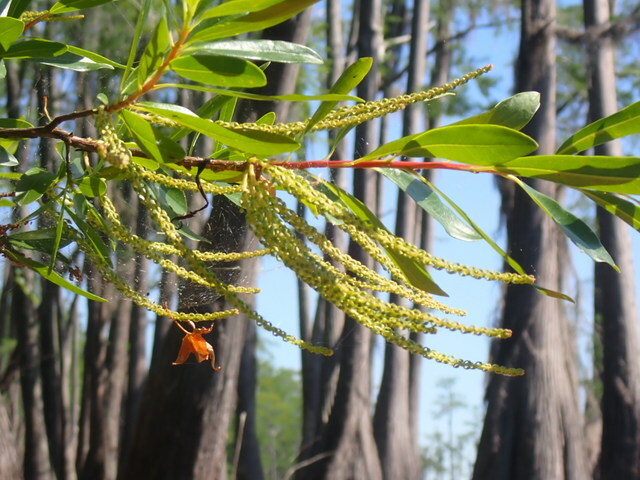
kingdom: Plantae
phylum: Tracheophyta
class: Magnoliopsida
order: Ericales
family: Cyrillaceae
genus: Cyrilla
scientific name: Cyrilla racemiflora
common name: Black titi
